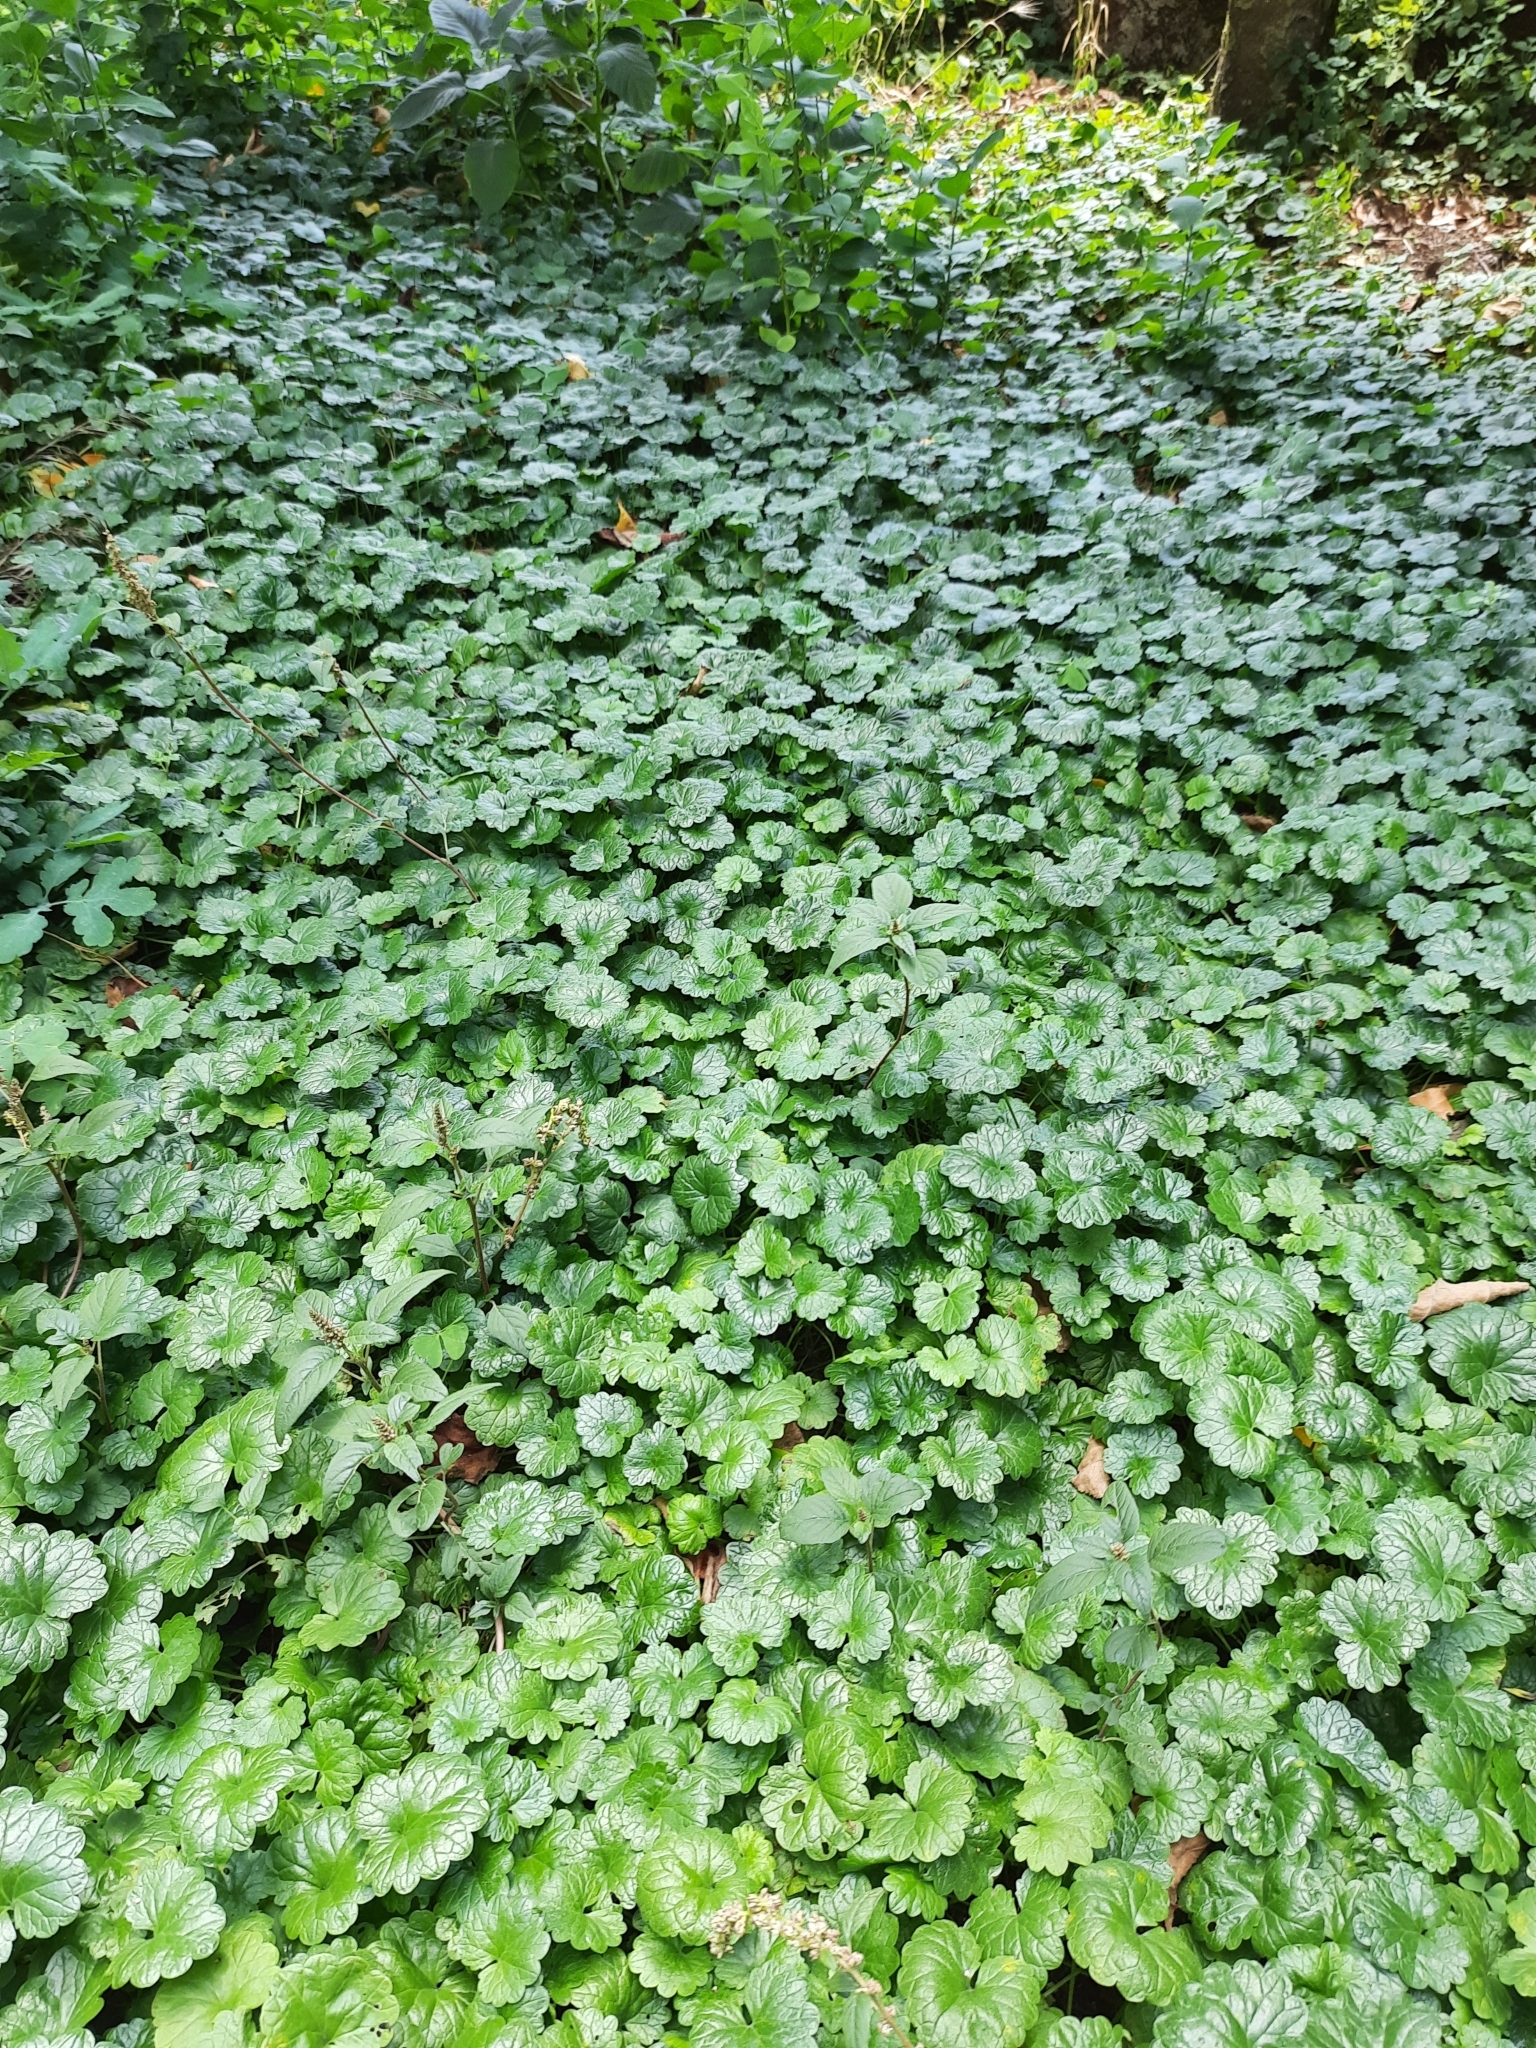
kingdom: Plantae
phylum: Tracheophyta
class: Magnoliopsida
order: Lamiales
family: Lamiaceae
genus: Glechoma
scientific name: Glechoma hederacea
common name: Ground ivy
